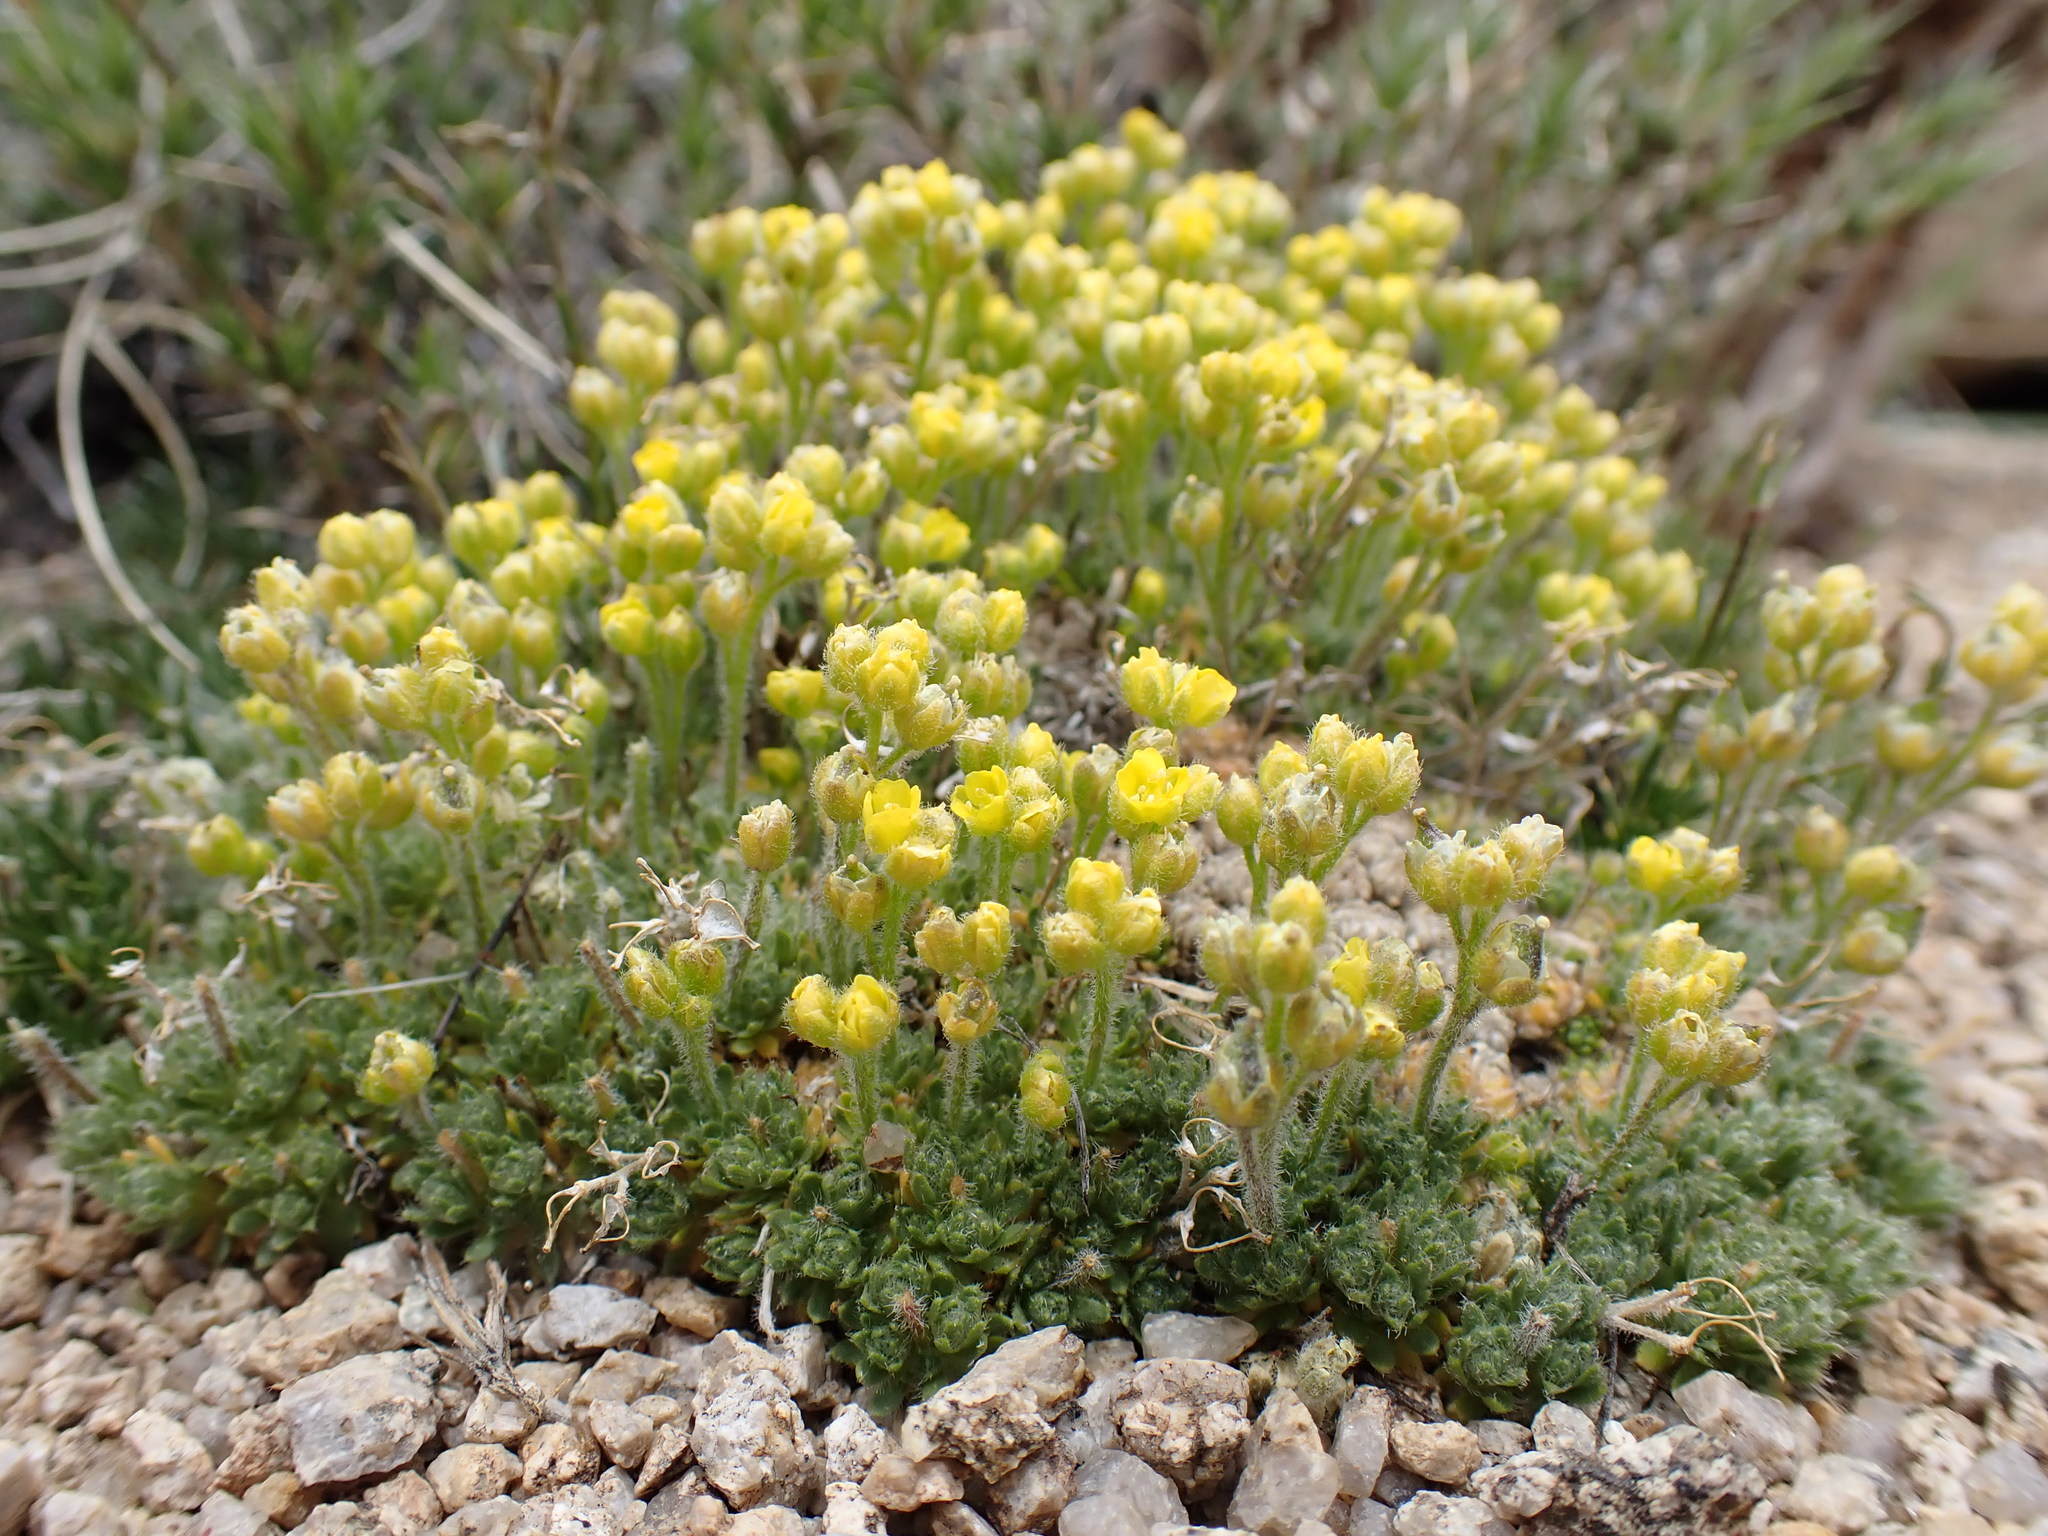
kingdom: Plantae
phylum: Tracheophyta
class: Magnoliopsida
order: Brassicales
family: Brassicaceae
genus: Draba
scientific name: Draba densifolia
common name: Nuttall's draba
